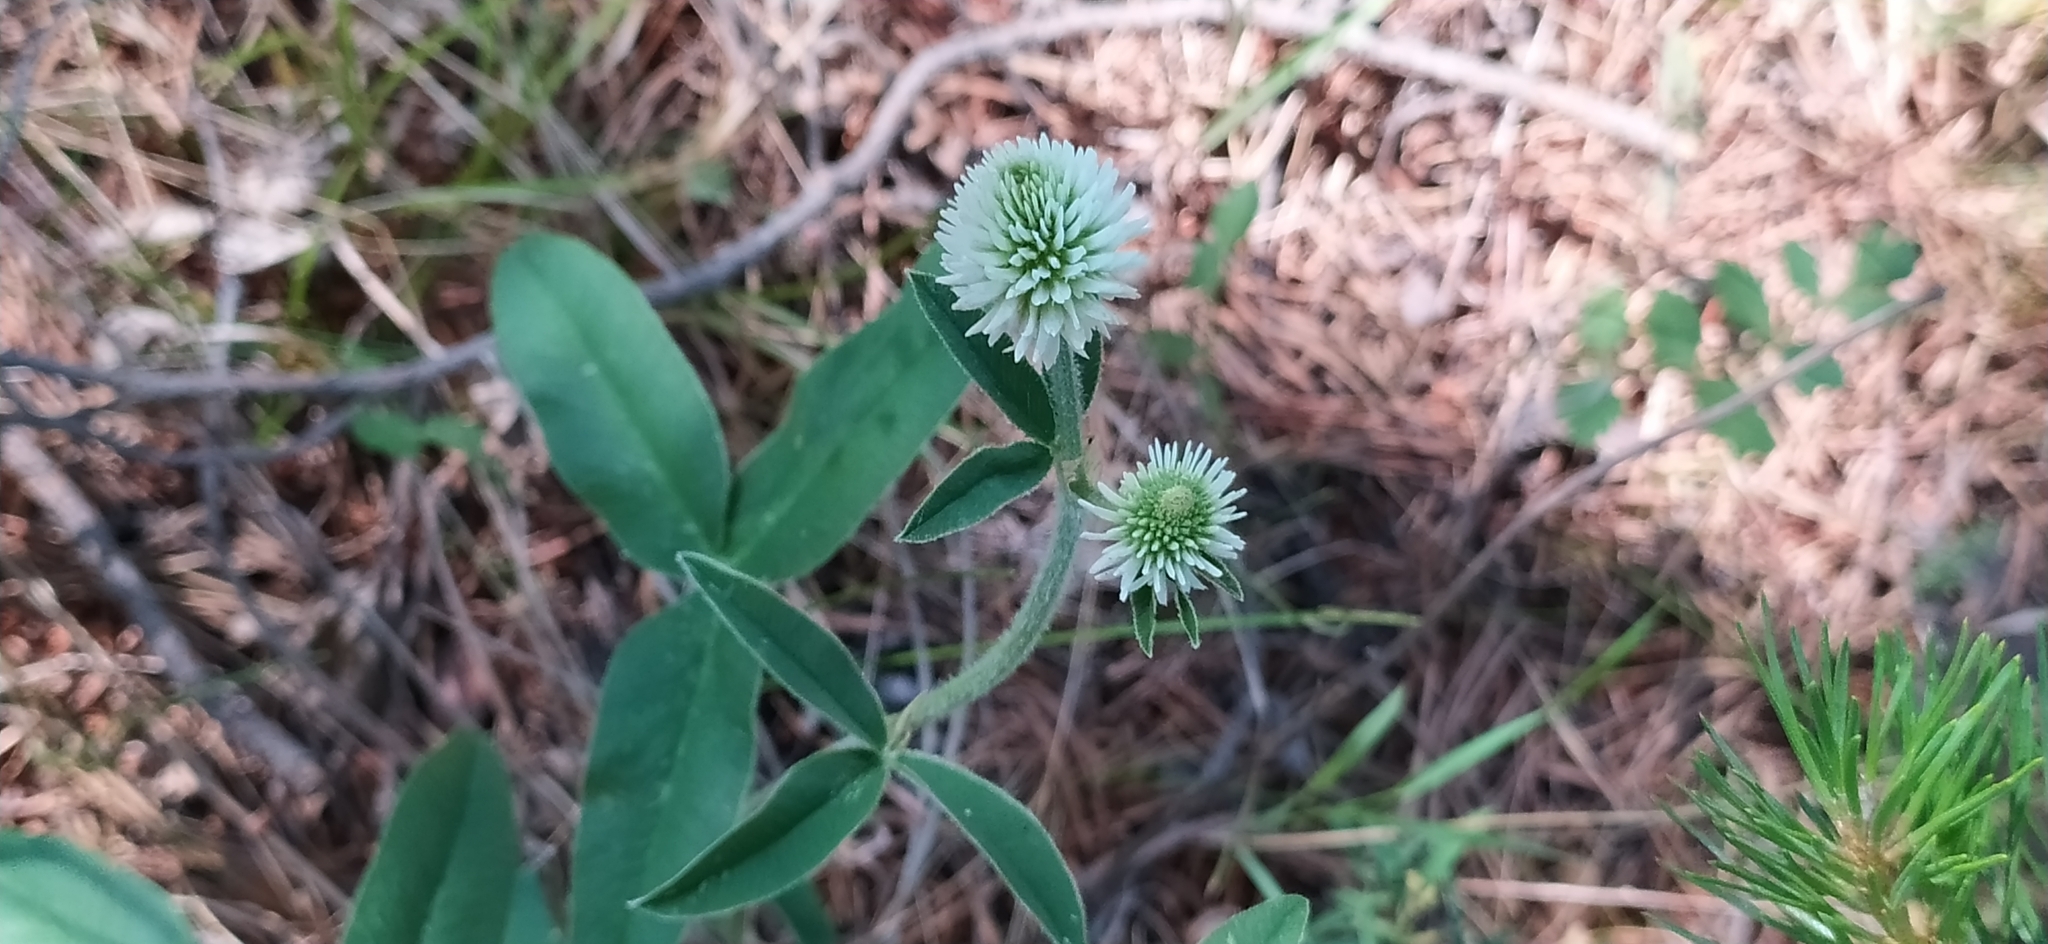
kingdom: Plantae
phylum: Tracheophyta
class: Magnoliopsida
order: Fabales
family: Fabaceae
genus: Trifolium
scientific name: Trifolium montanum
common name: Mountain clover
